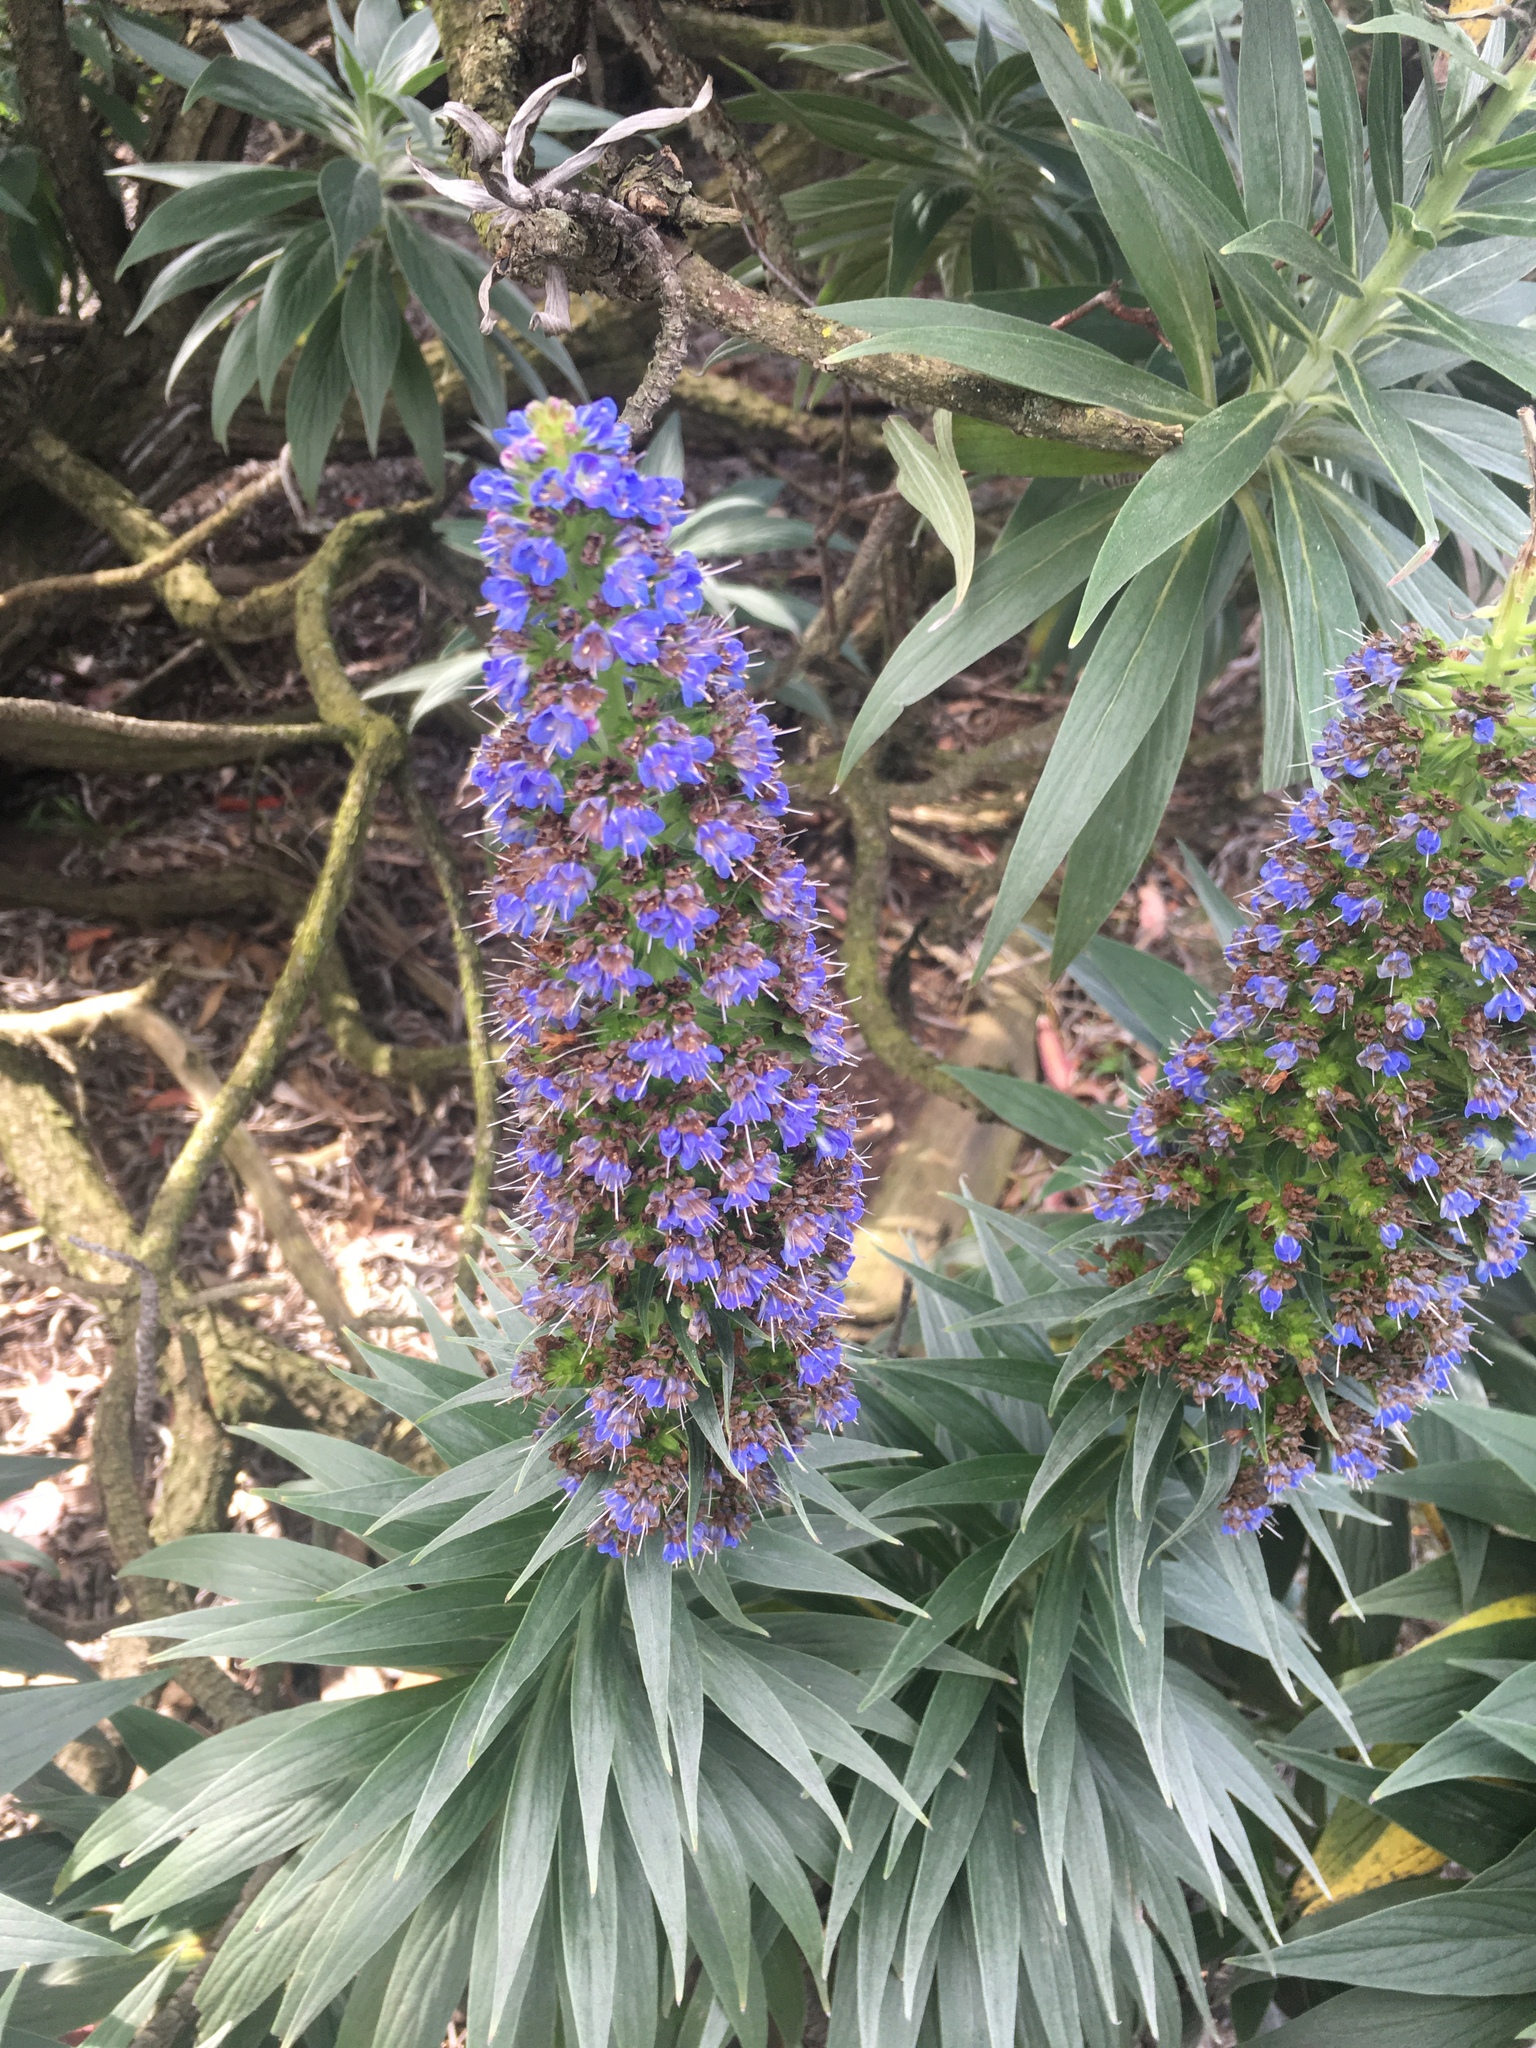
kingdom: Plantae
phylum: Tracheophyta
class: Magnoliopsida
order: Boraginales
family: Boraginaceae
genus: Echium
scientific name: Echium candicans
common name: Pride of madeira
